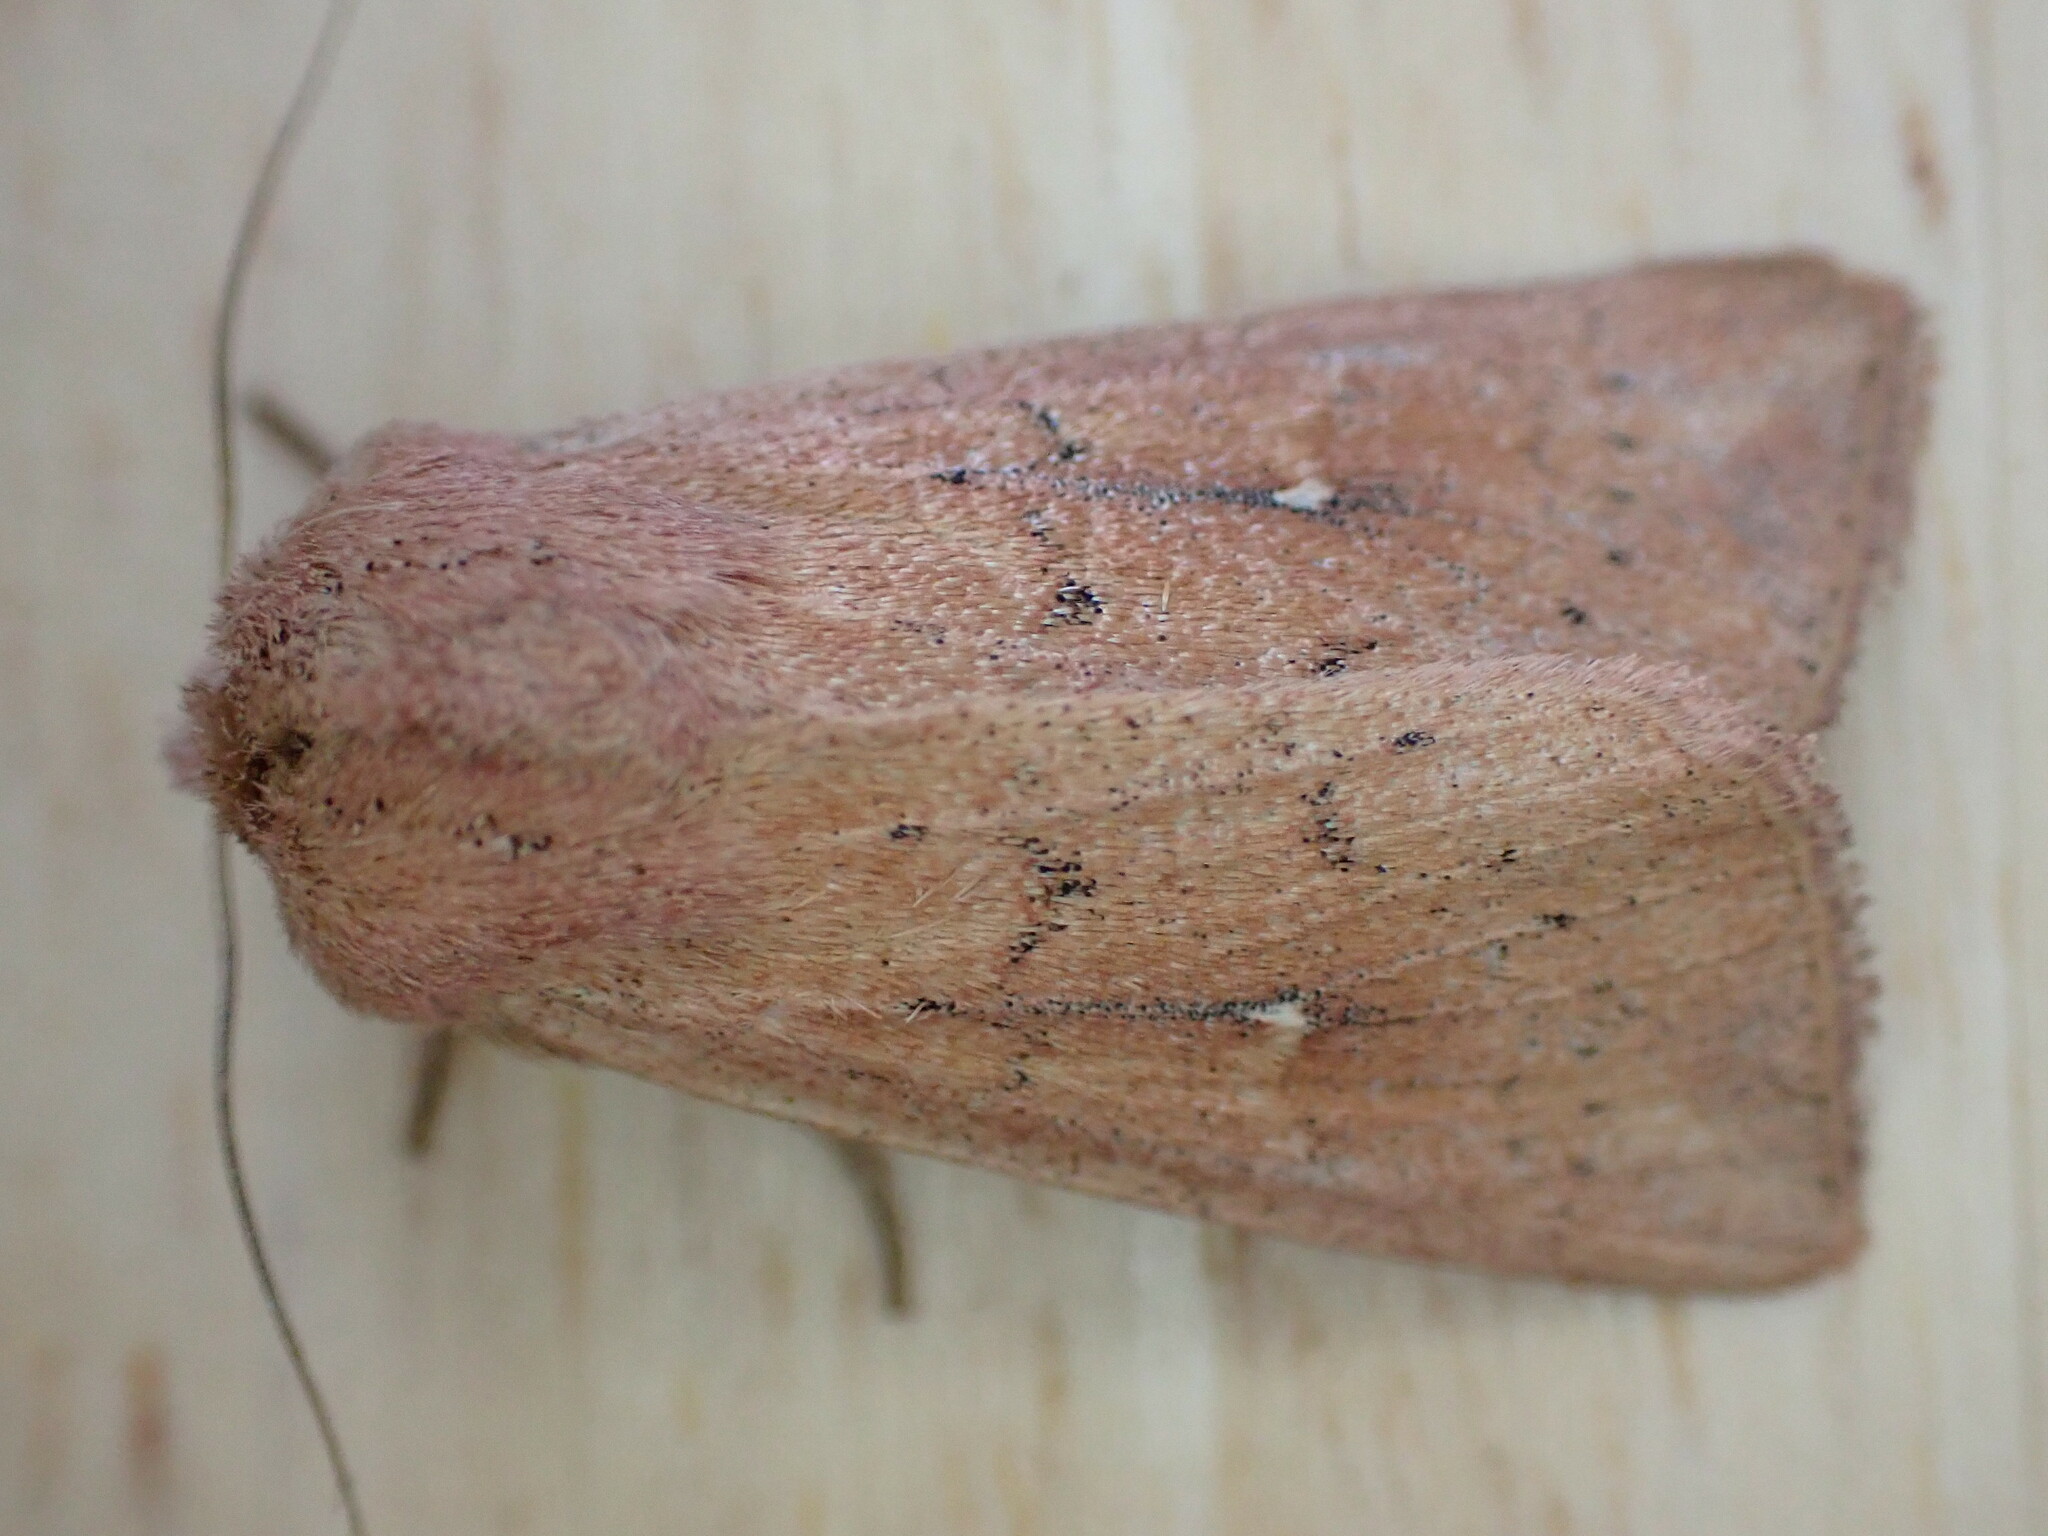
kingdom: Animalia
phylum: Arthropoda
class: Insecta
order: Lepidoptera
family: Noctuidae
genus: Mythimna
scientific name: Mythimna ferrago
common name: Clay
